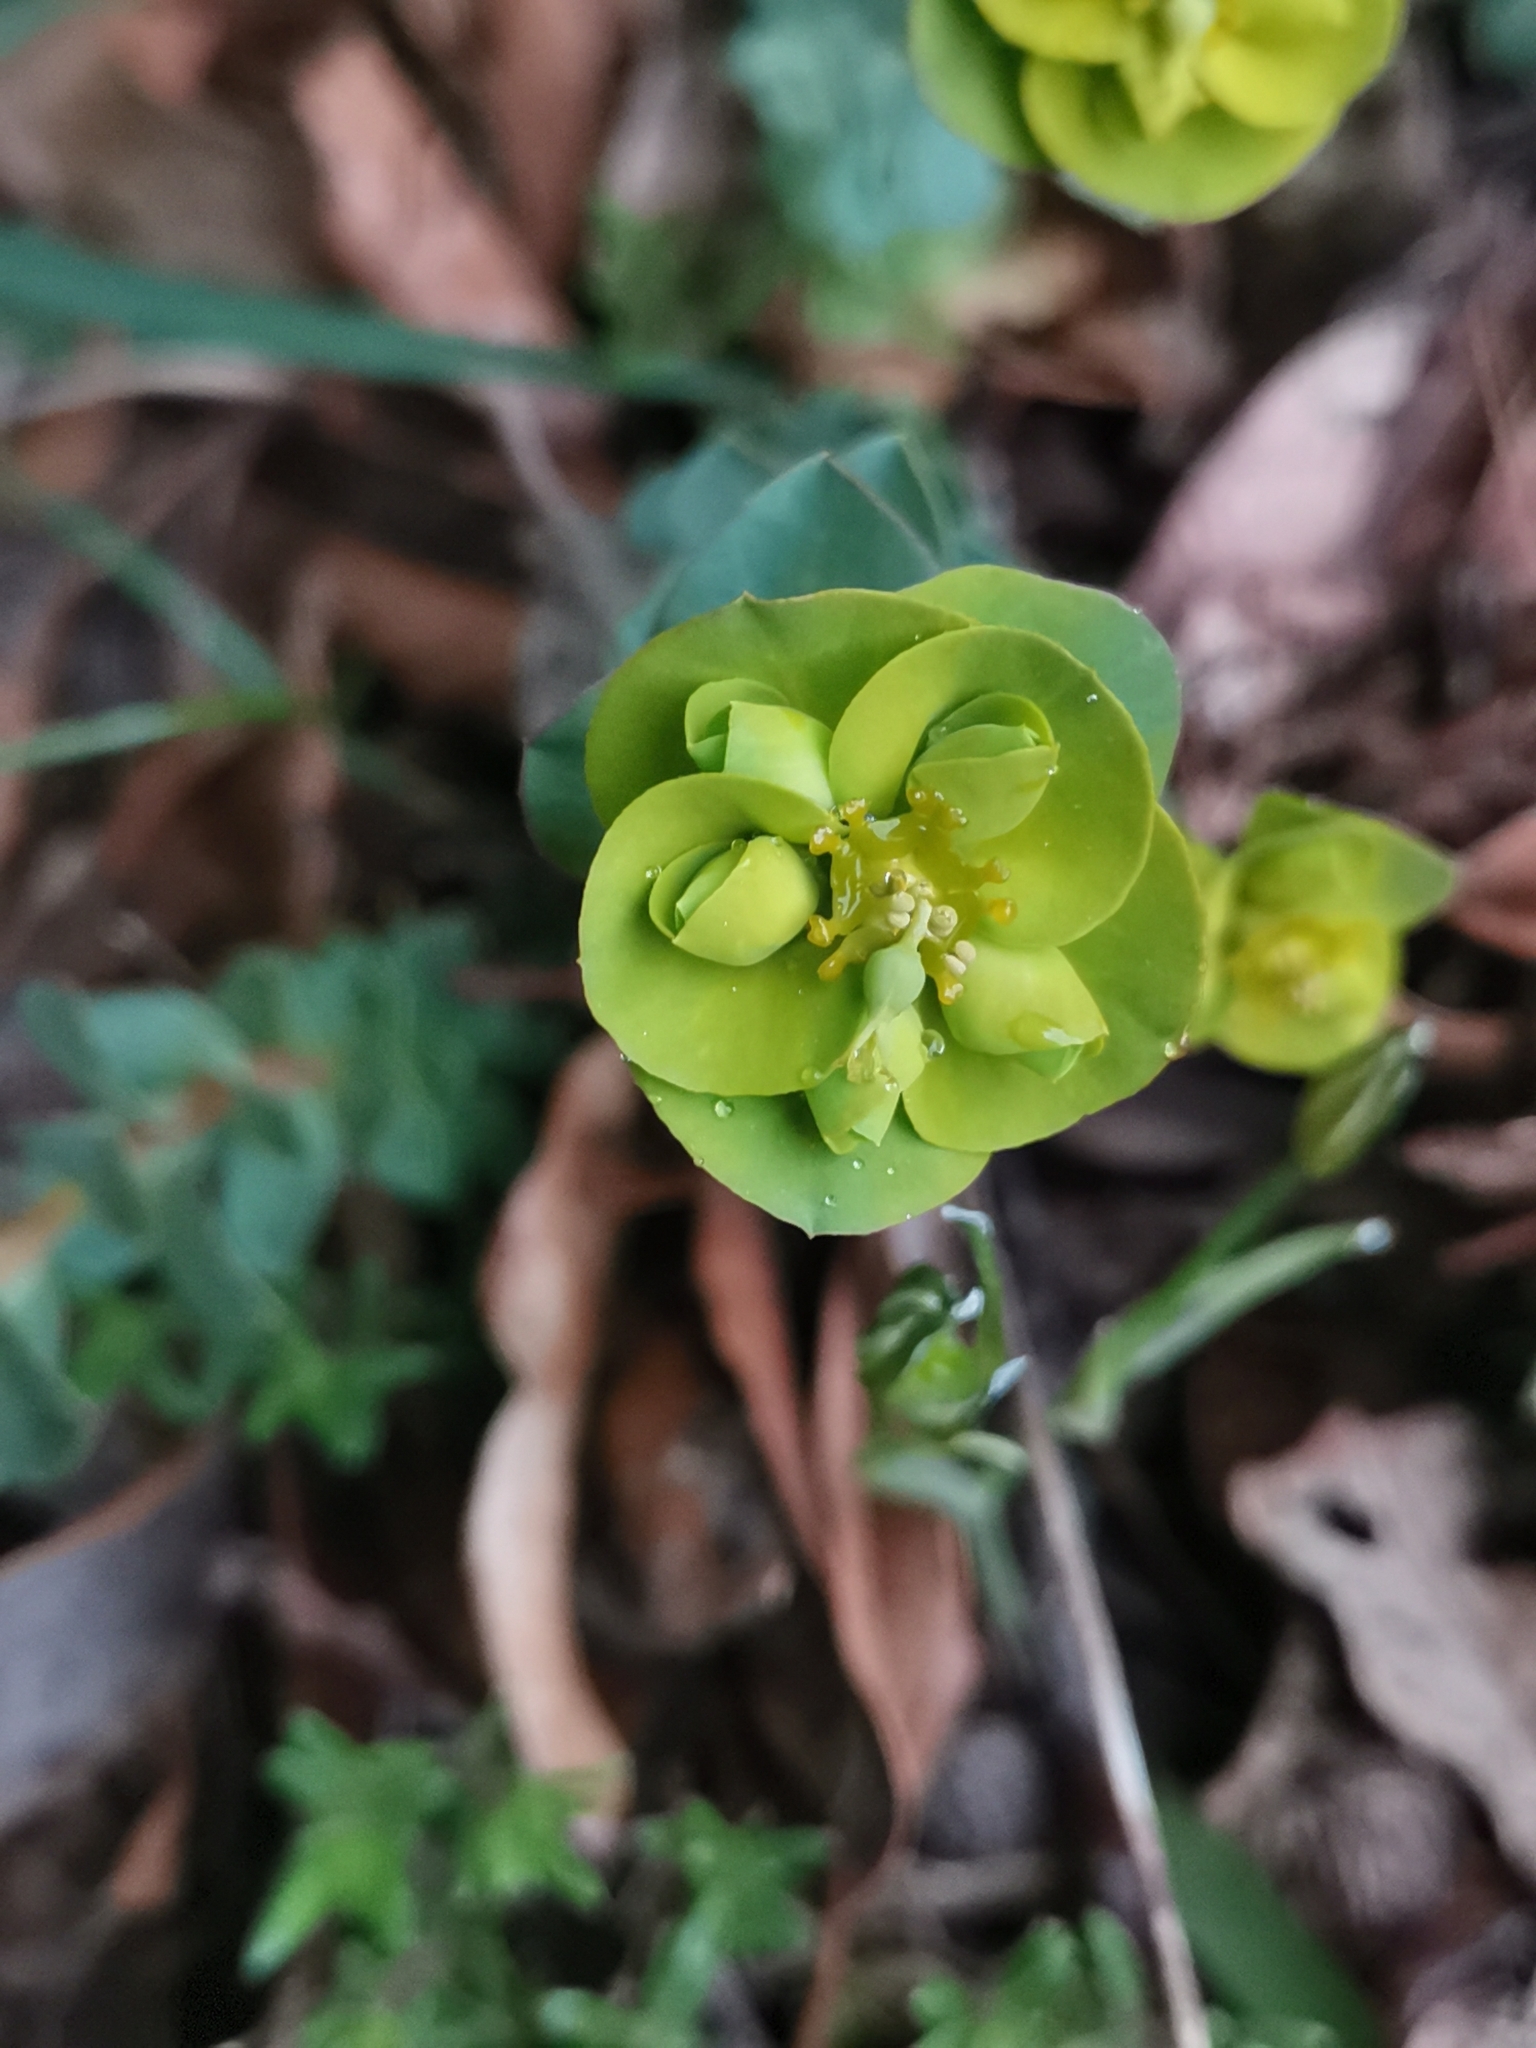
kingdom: Plantae
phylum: Tracheophyta
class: Magnoliopsida
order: Malpighiales
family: Euphorbiaceae
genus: Euphorbia
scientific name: Euphorbia barrelieri
